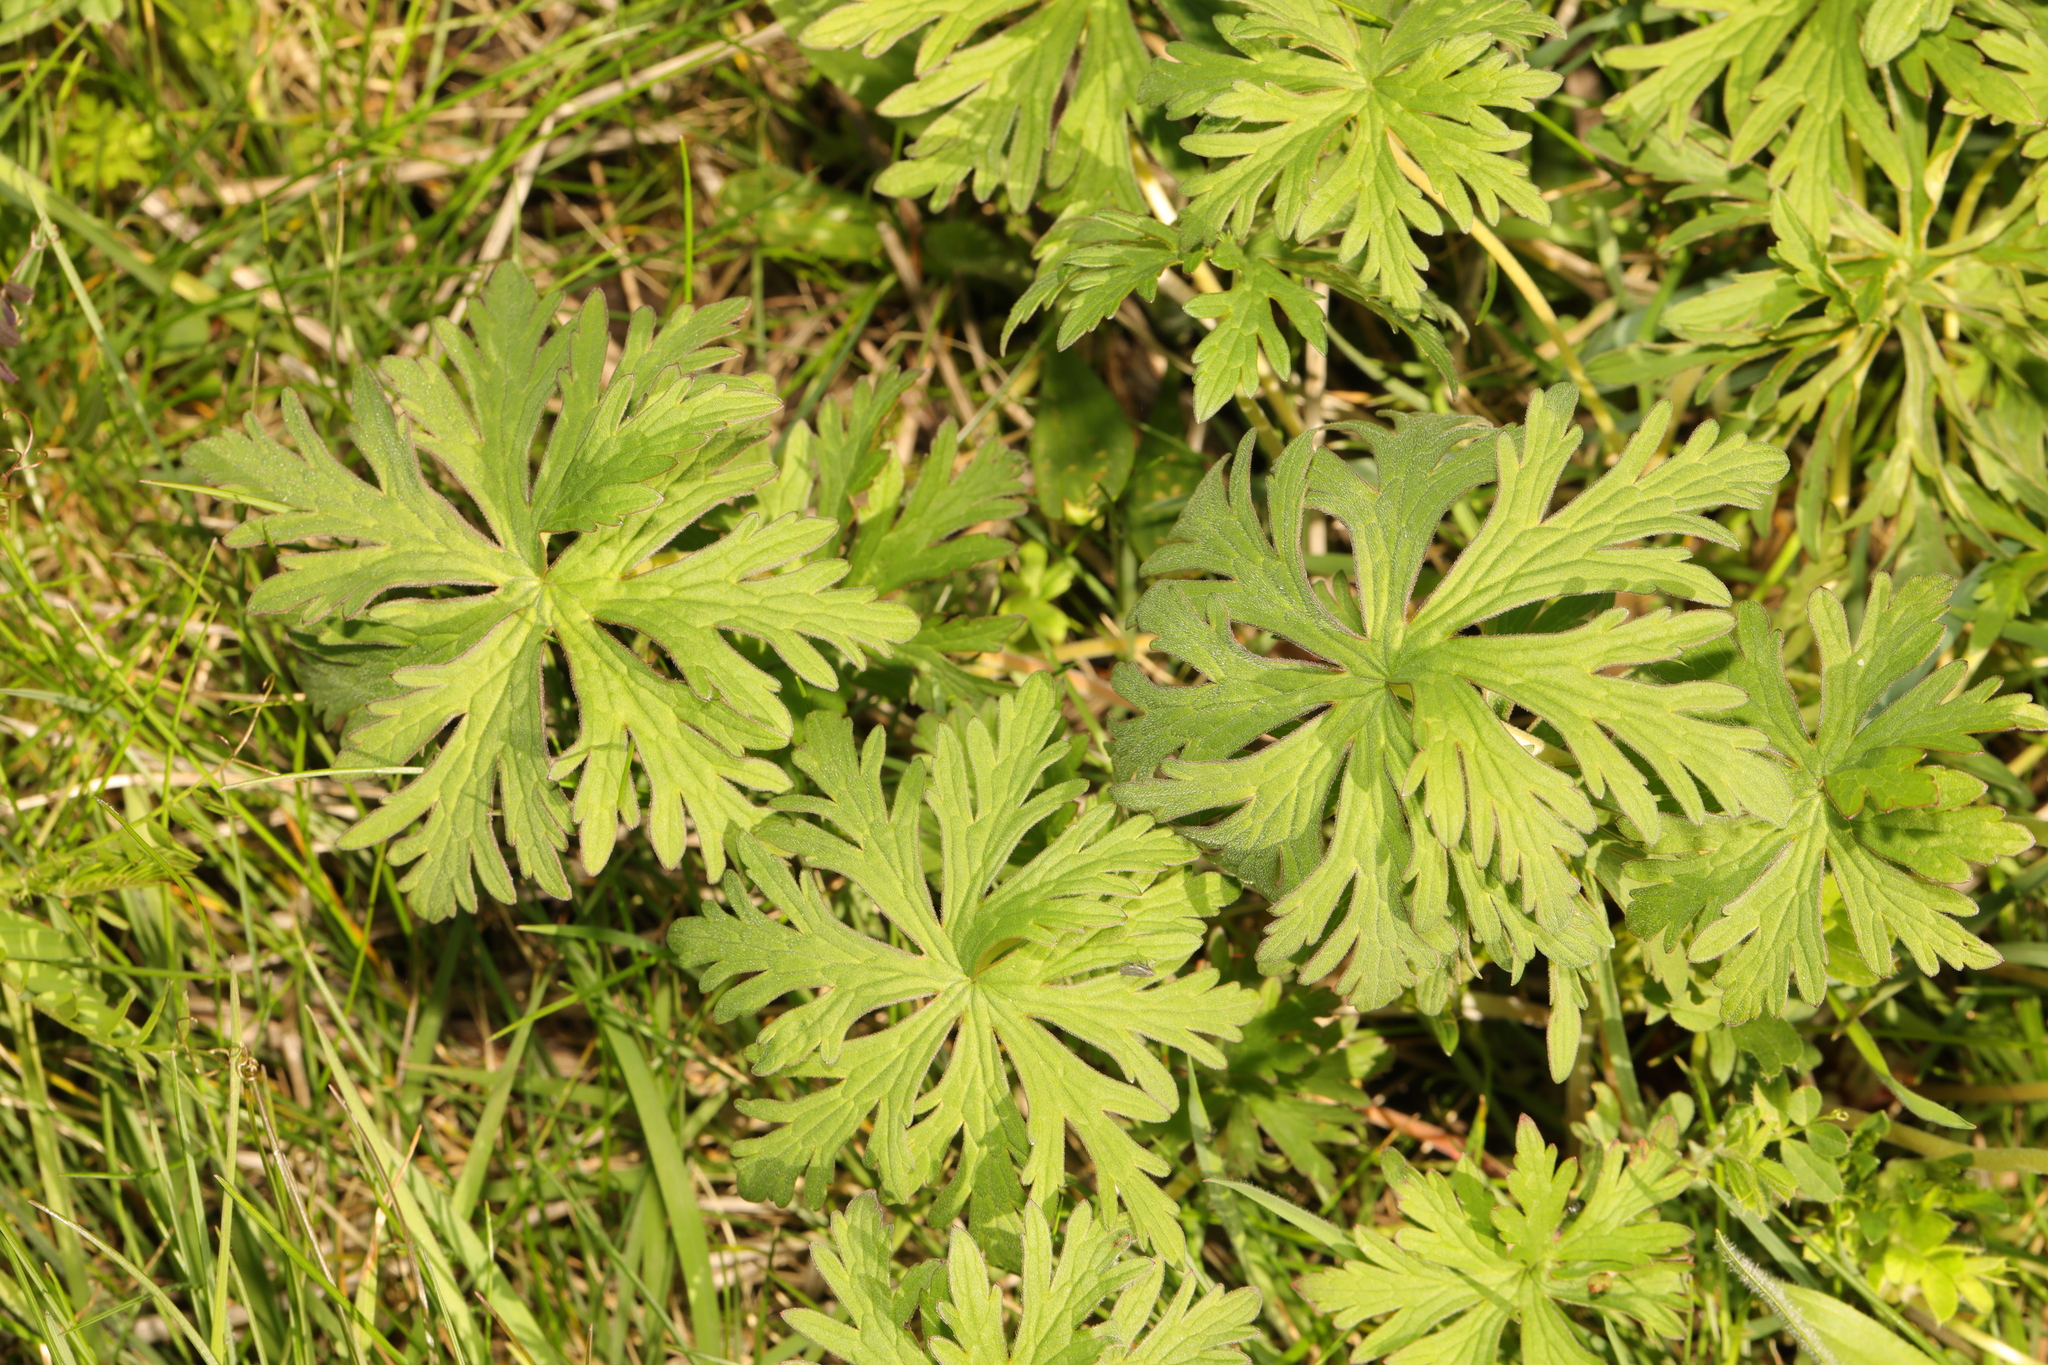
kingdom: Plantae
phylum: Tracheophyta
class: Magnoliopsida
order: Geraniales
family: Geraniaceae
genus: Geranium
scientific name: Geranium pratense
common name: Meadow crane's-bill
